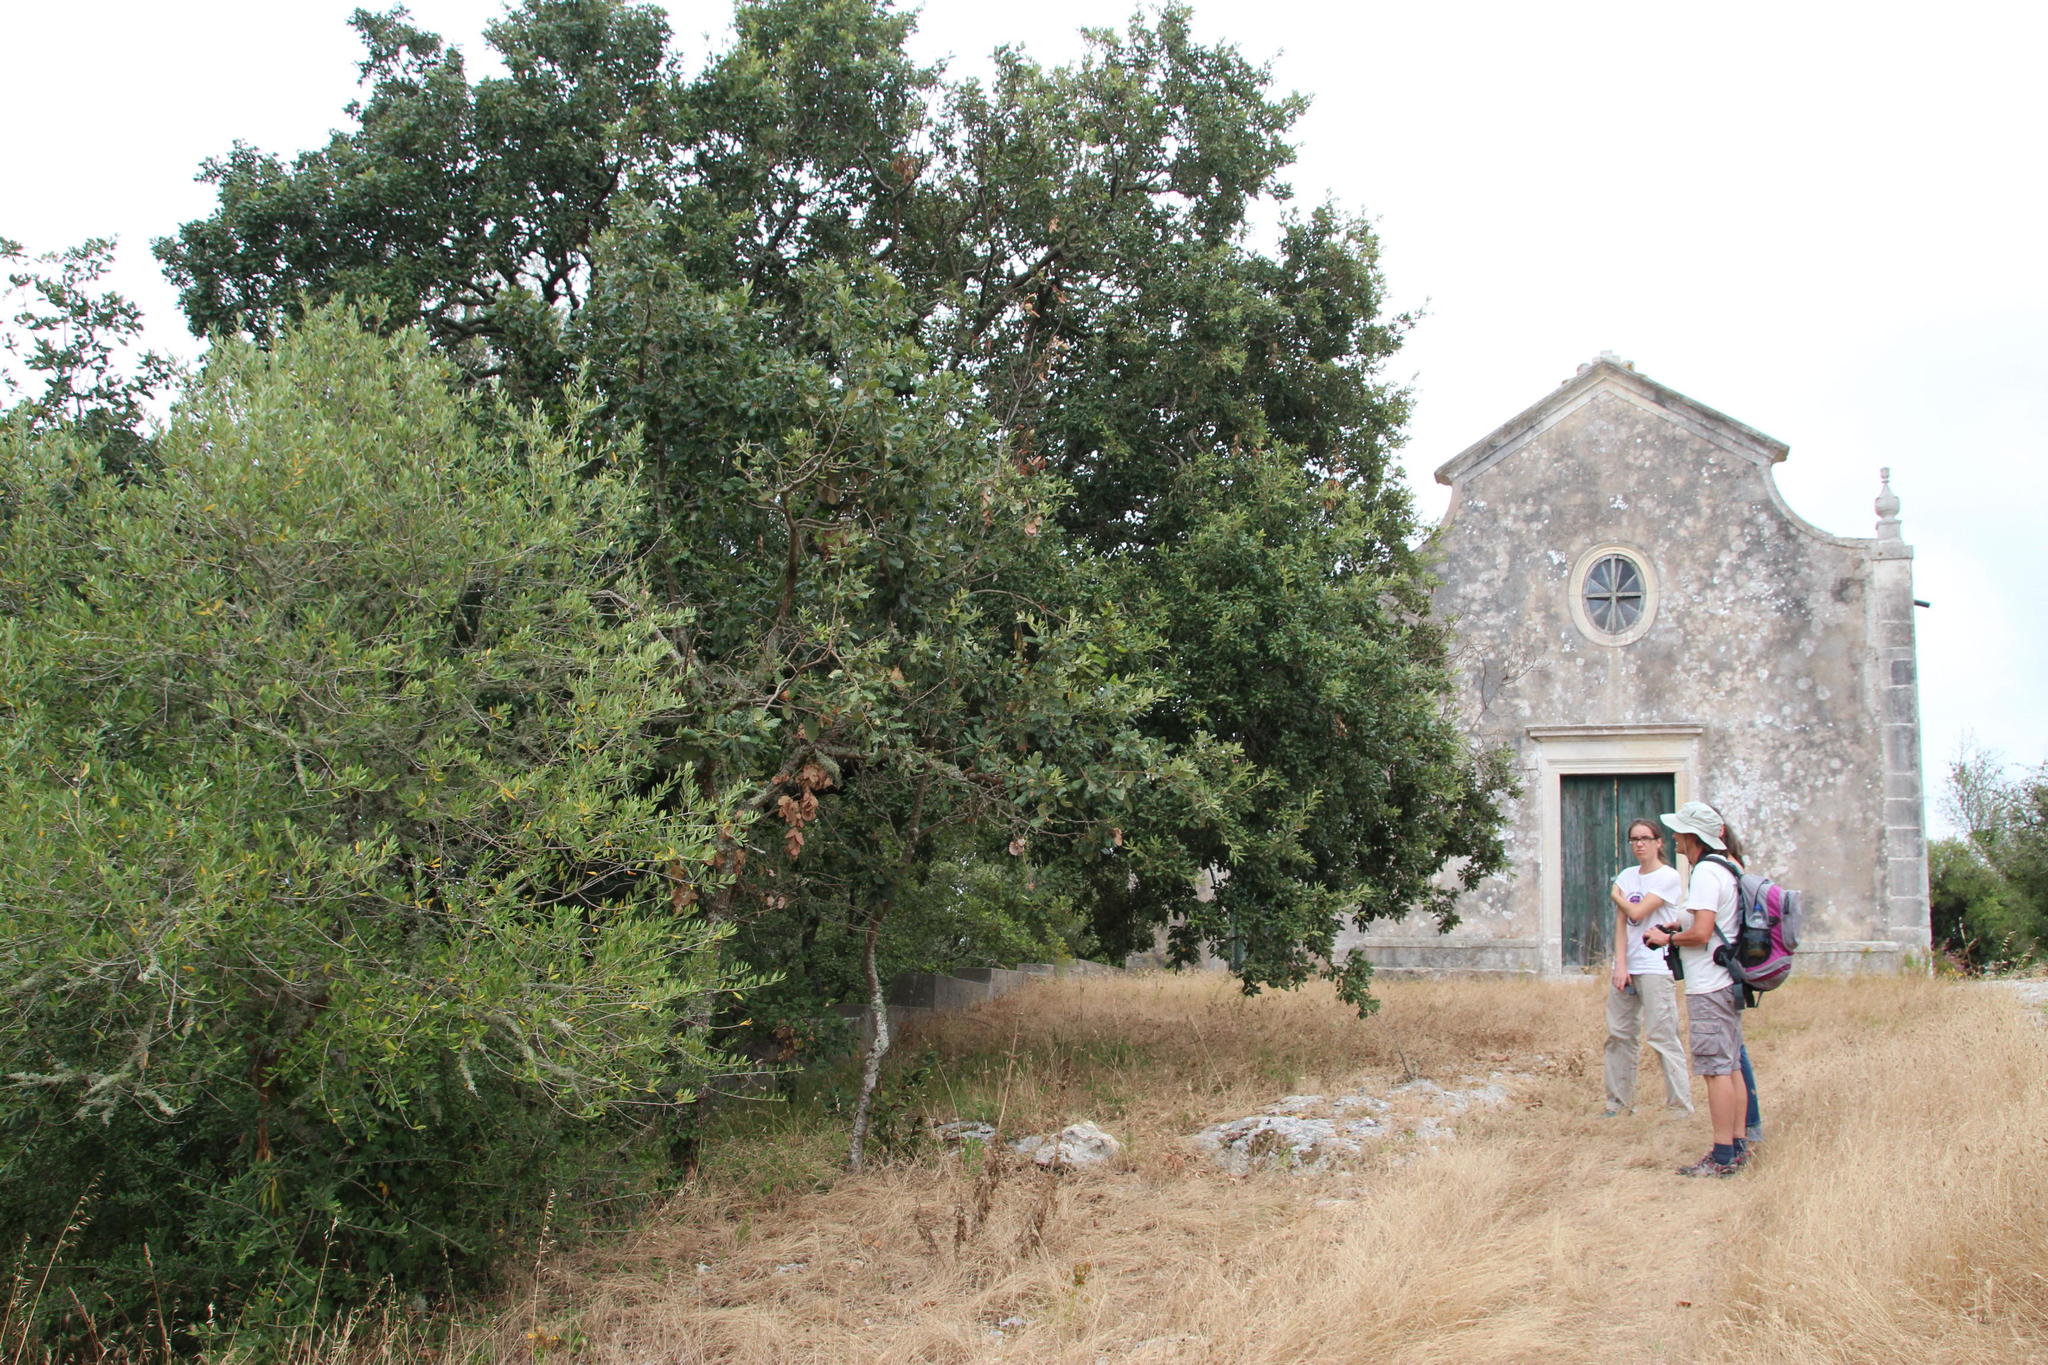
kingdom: Plantae
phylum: Tracheophyta
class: Magnoliopsida
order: Fagales
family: Fagaceae
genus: Quercus
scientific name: Quercus faginea
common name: Gall oak tree
